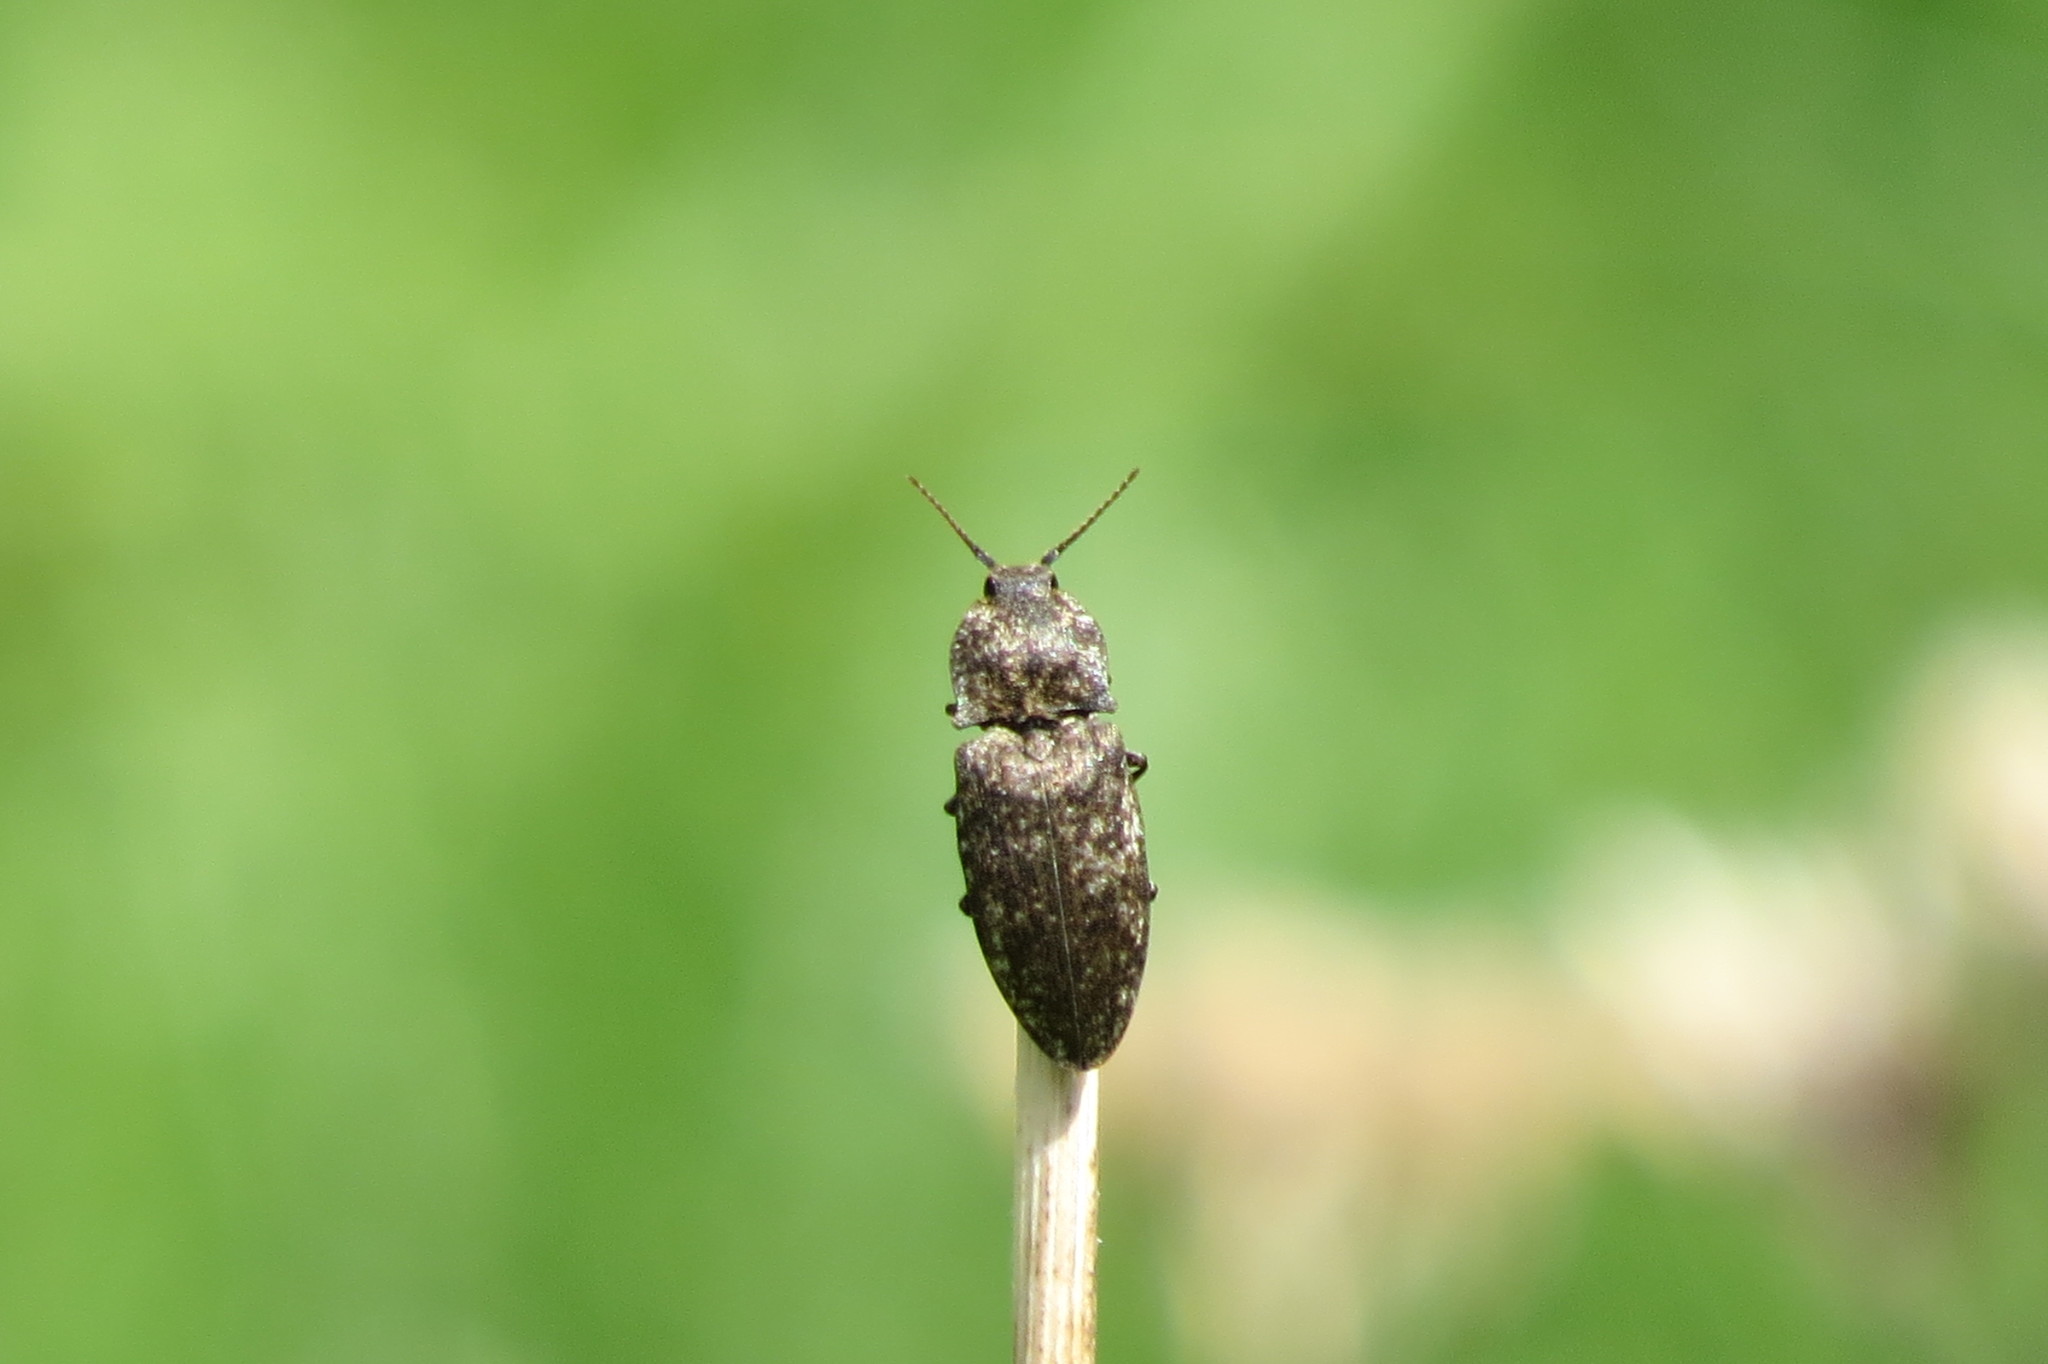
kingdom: Animalia
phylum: Arthropoda
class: Insecta
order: Coleoptera
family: Elateridae
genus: Agrypnus
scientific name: Agrypnus murinus
